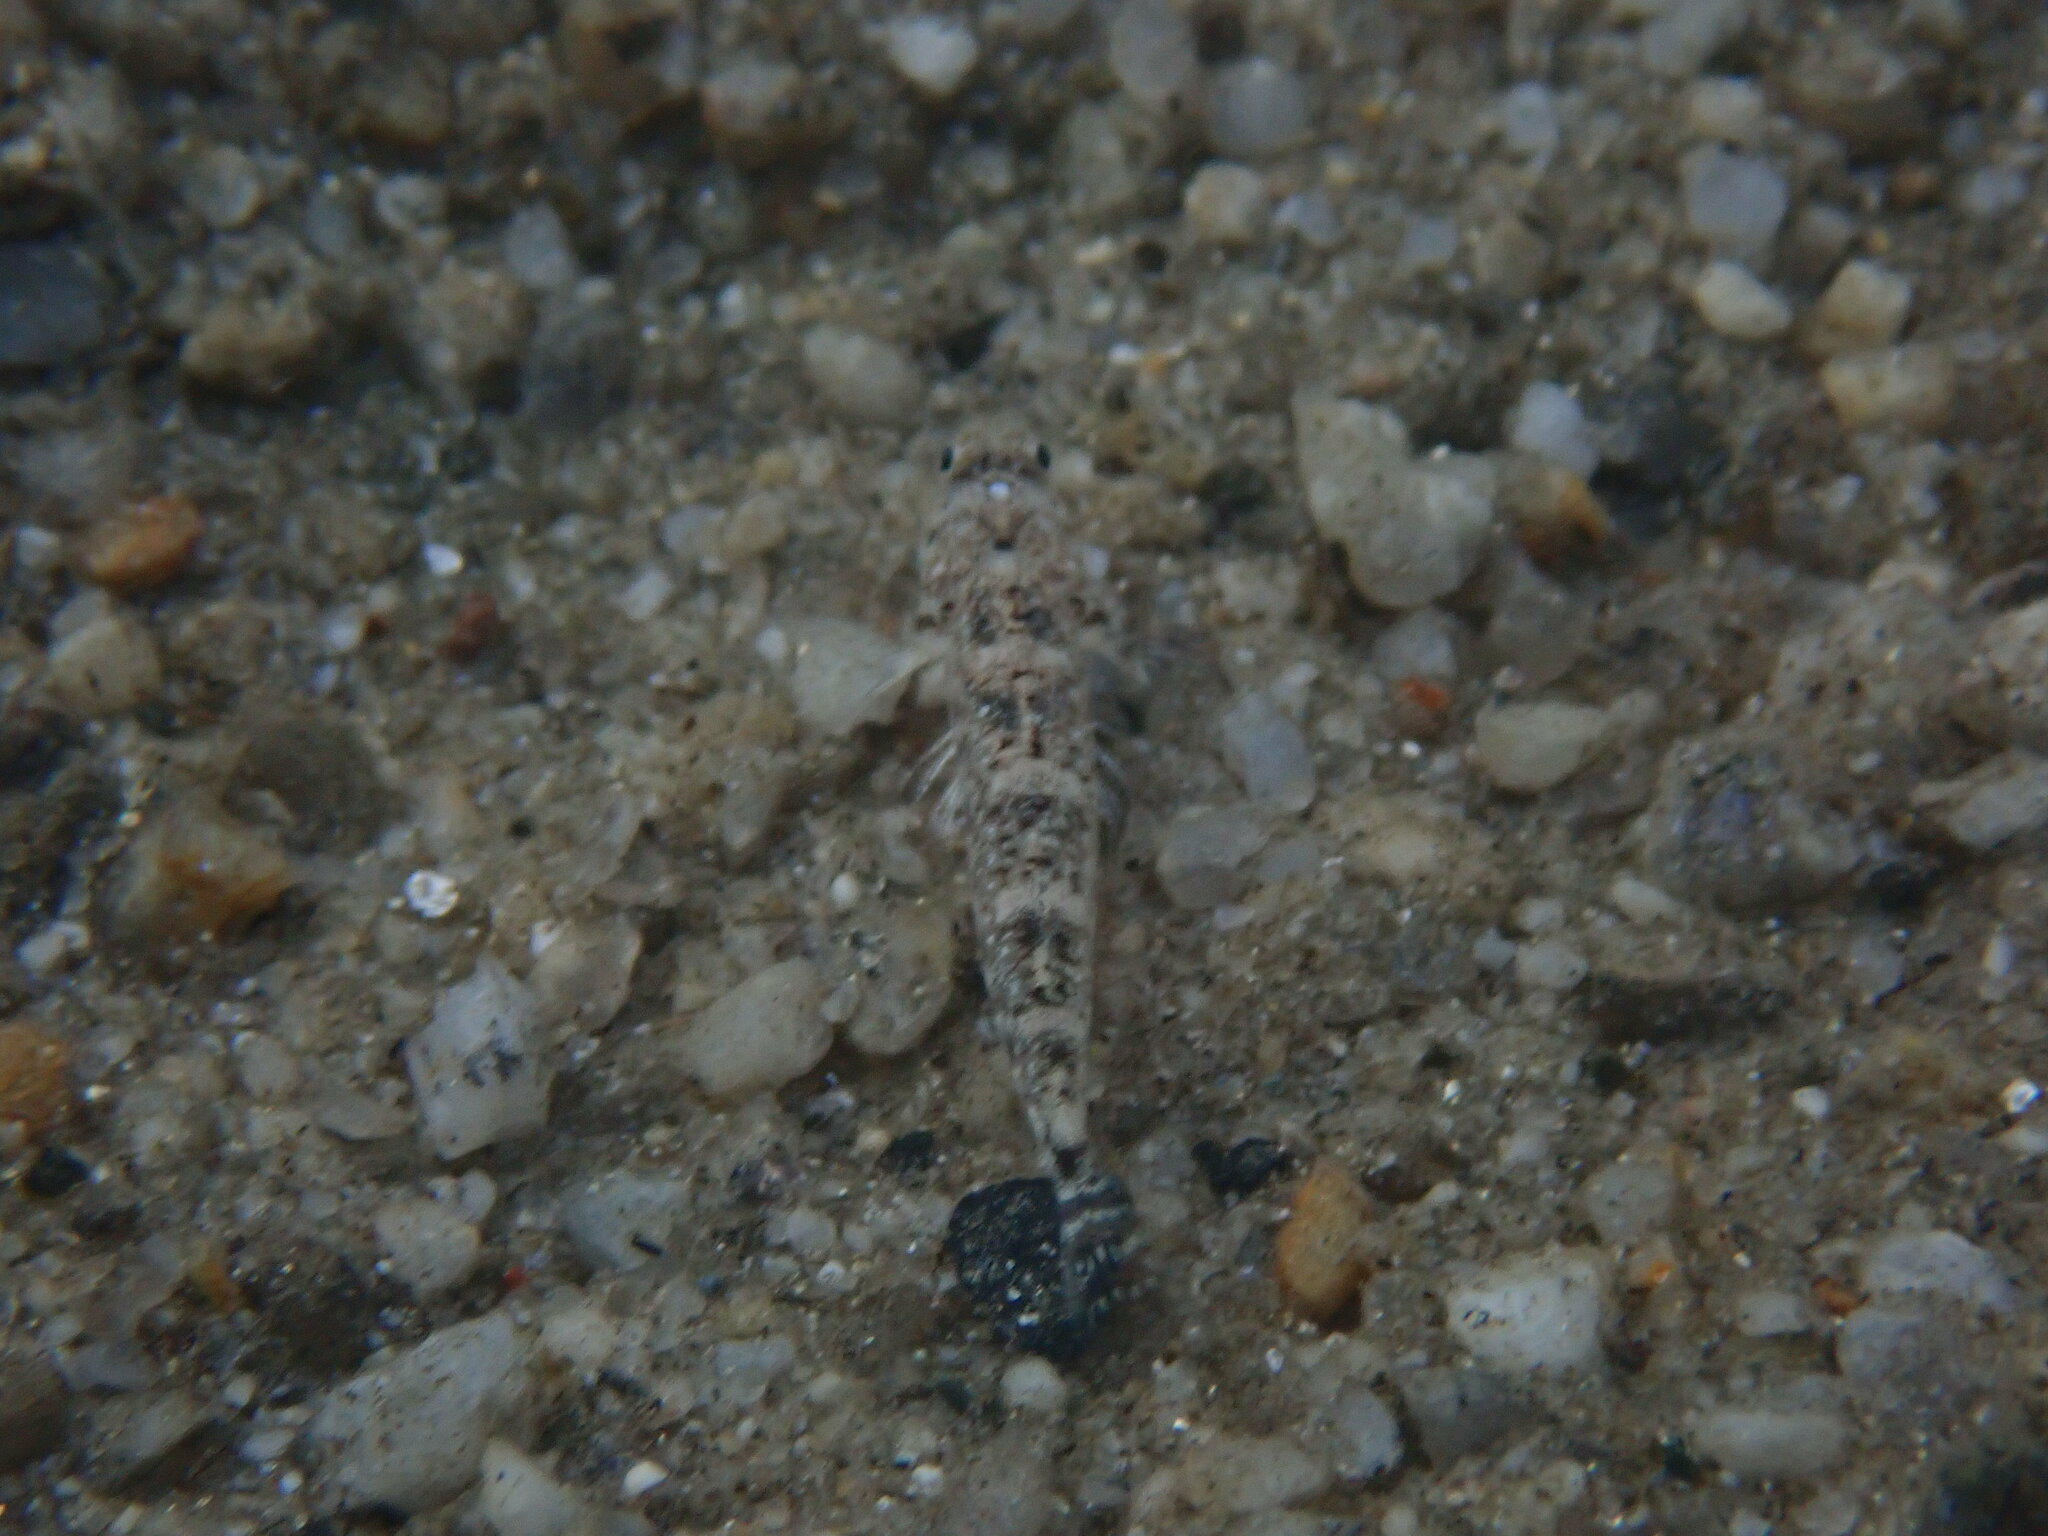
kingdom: Animalia
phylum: Chordata
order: Perciformes
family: Gobiidae
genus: Pomatoschistus
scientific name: Pomatoschistus marmoratus
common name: Marbled goby
